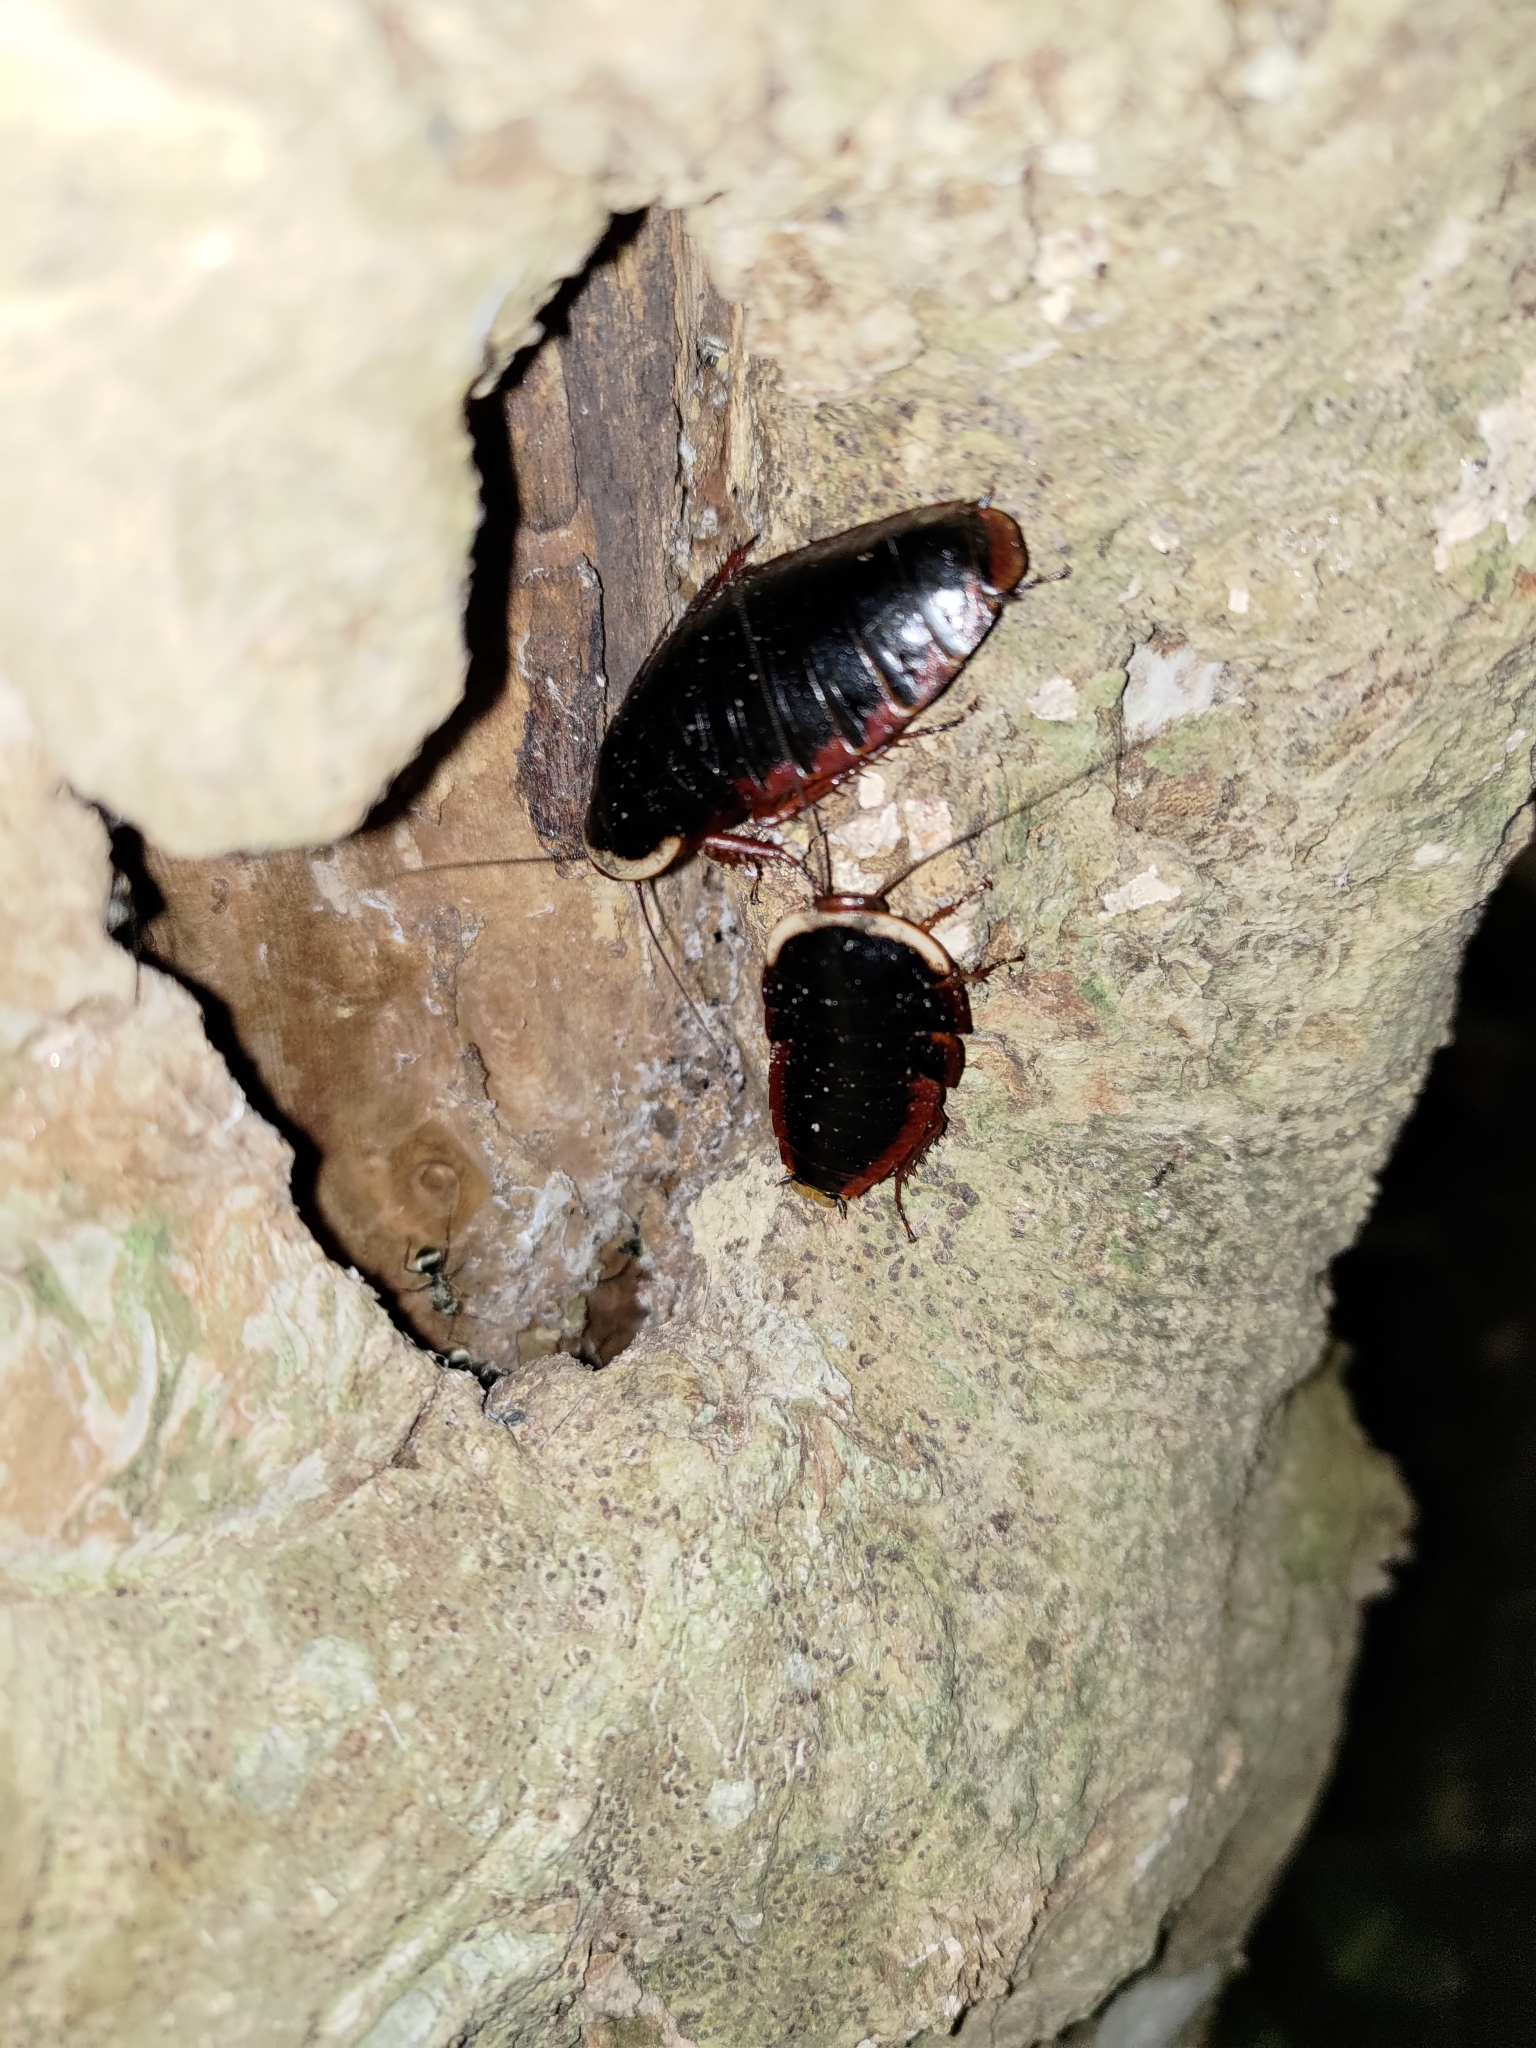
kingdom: Animalia
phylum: Arthropoda
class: Insecta
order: Blattodea
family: Blaberidae
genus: Opisthoplatia
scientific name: Opisthoplatia orientalis
